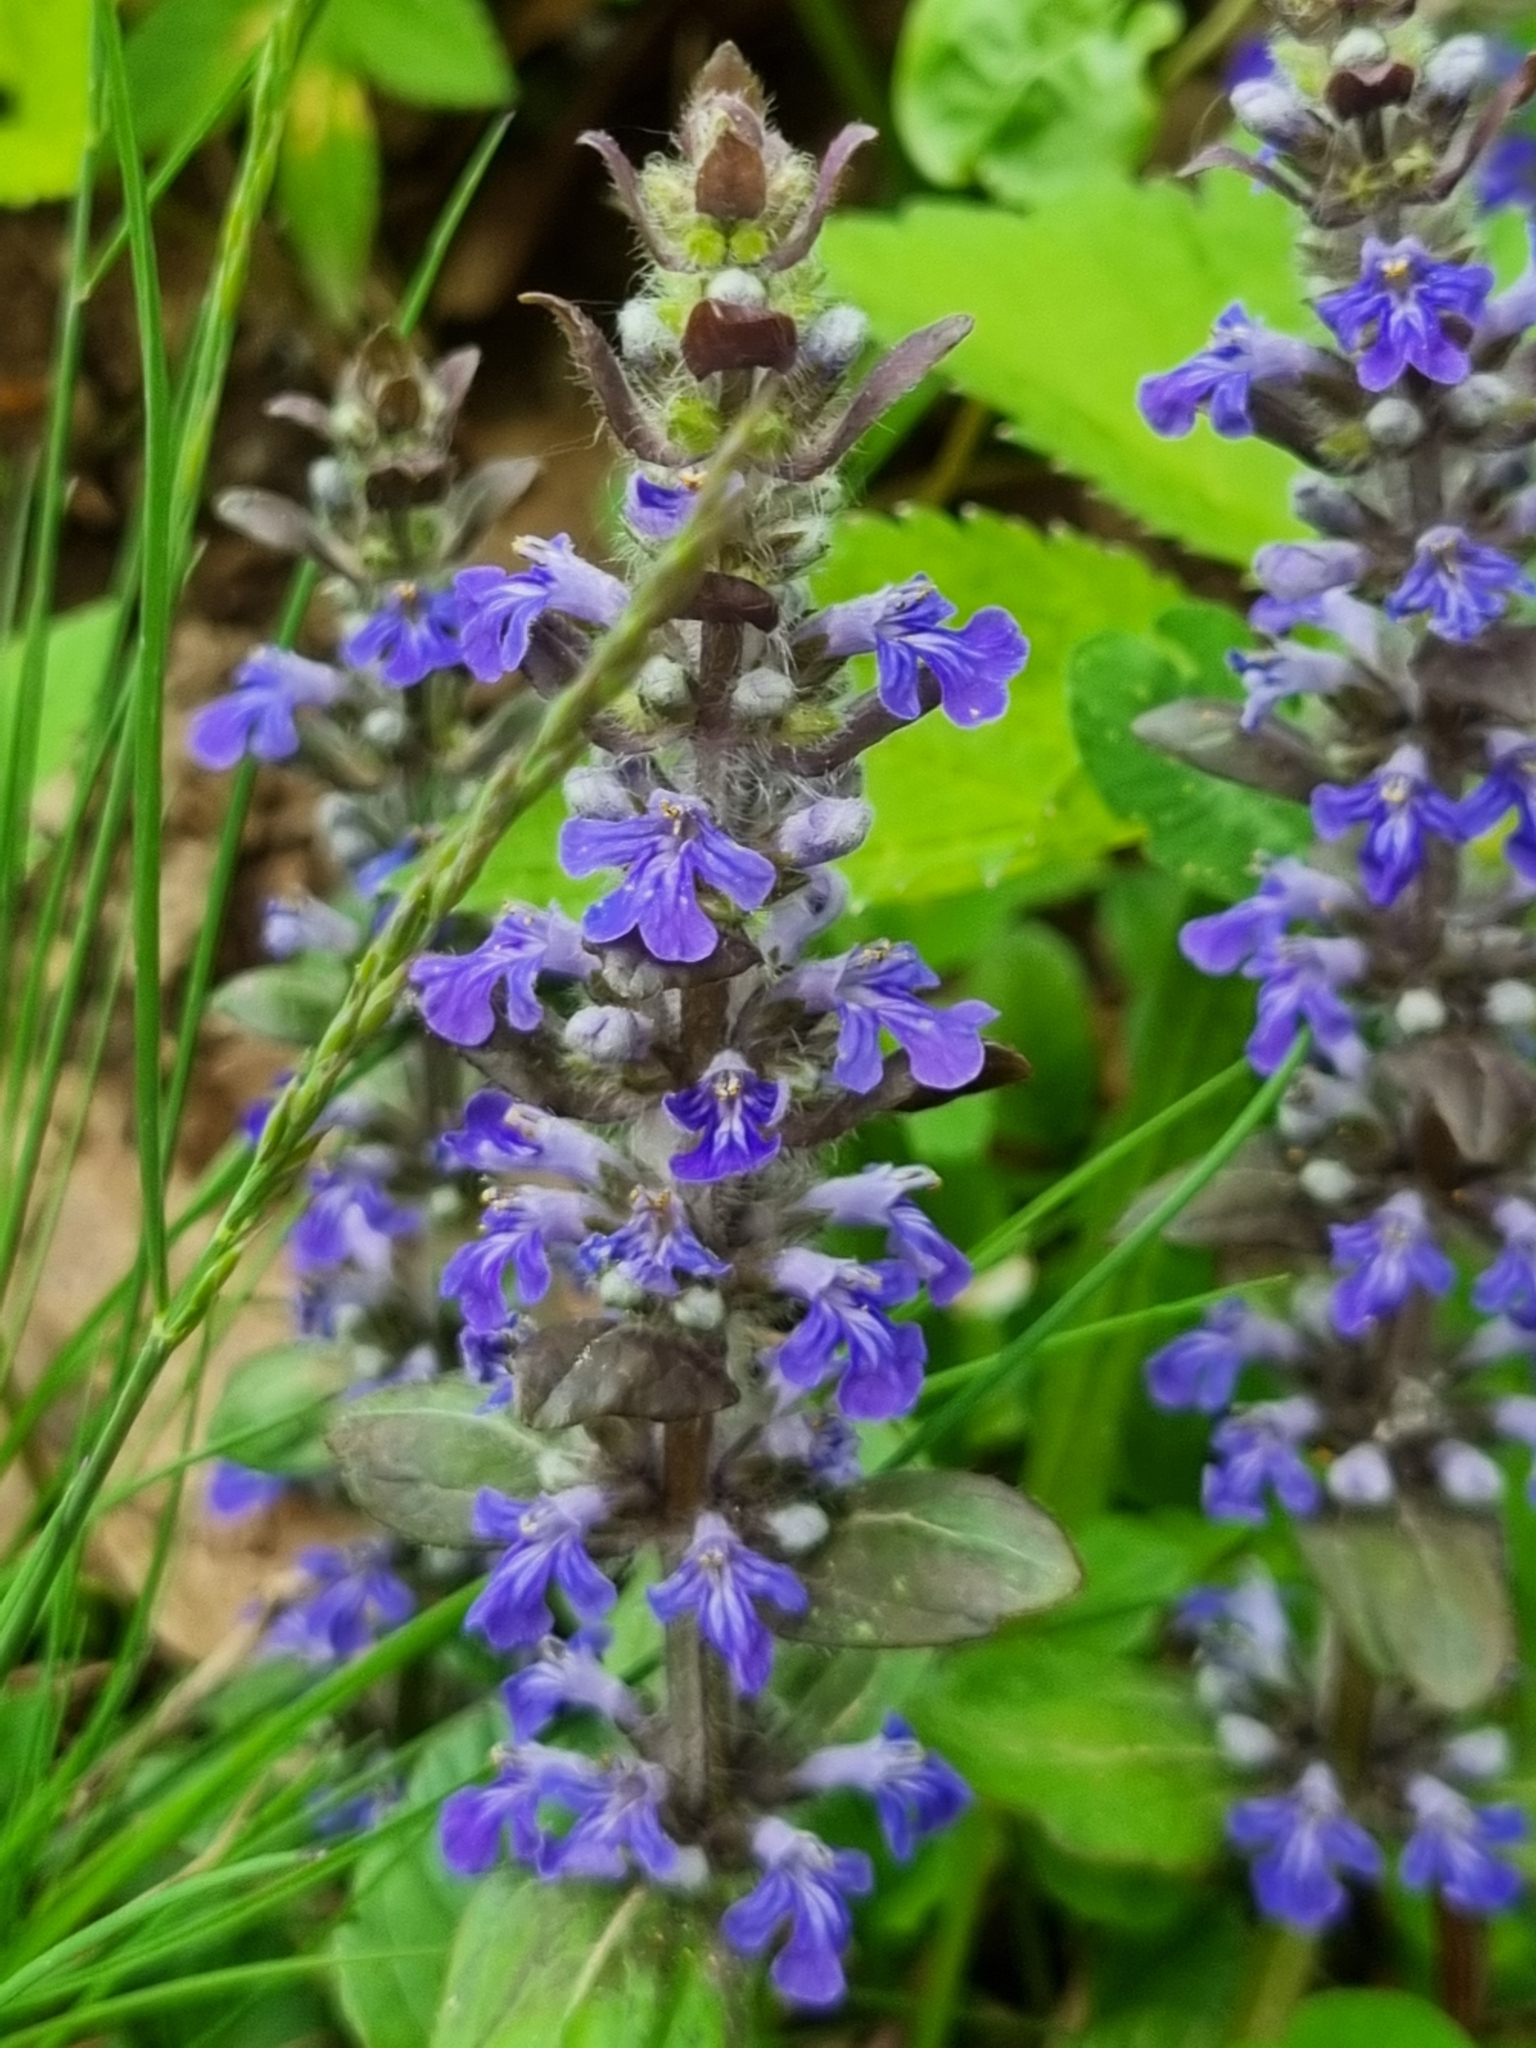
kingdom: Plantae
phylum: Tracheophyta
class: Magnoliopsida
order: Lamiales
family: Lamiaceae
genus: Ajuga
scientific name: Ajuga reptans
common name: Bugle
